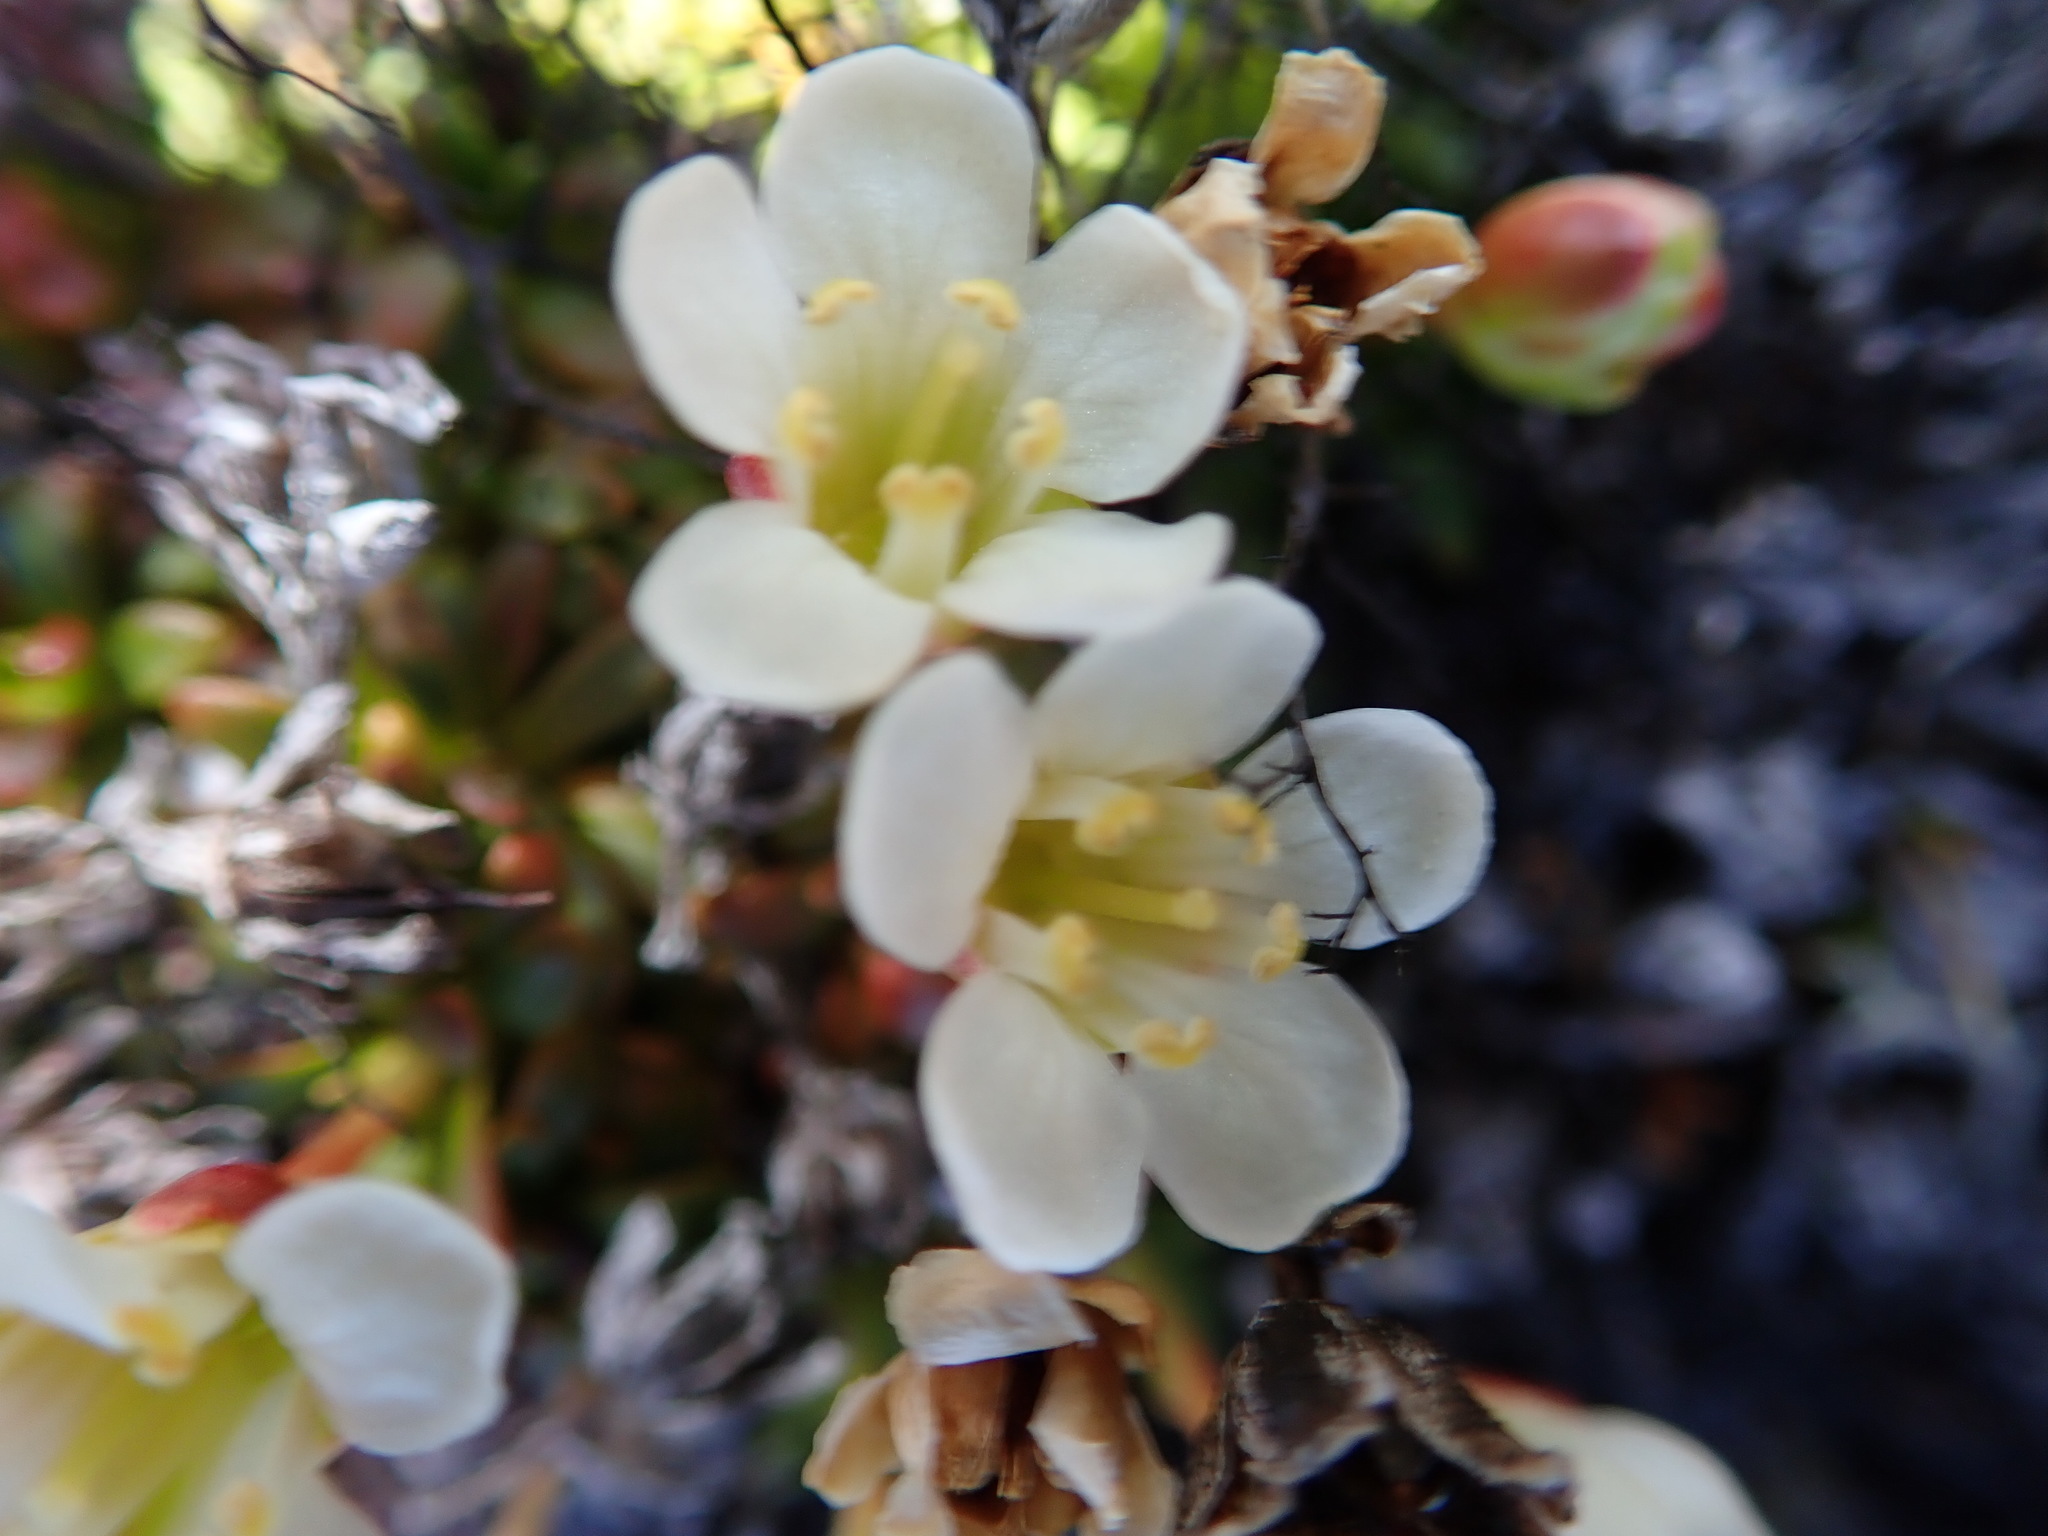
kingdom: Plantae
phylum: Tracheophyta
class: Magnoliopsida
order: Ericales
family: Diapensiaceae
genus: Diapensia
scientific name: Diapensia lapponica
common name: Diapensia
